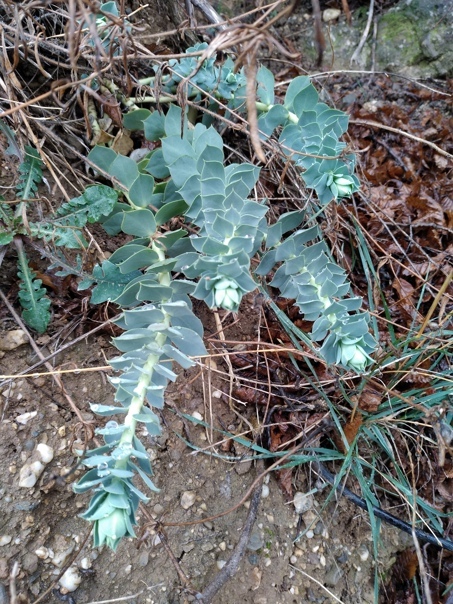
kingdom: Plantae
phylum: Tracheophyta
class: Magnoliopsida
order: Malpighiales
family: Euphorbiaceae
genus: Euphorbia
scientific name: Euphorbia myrsinites
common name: Myrtle spurge
